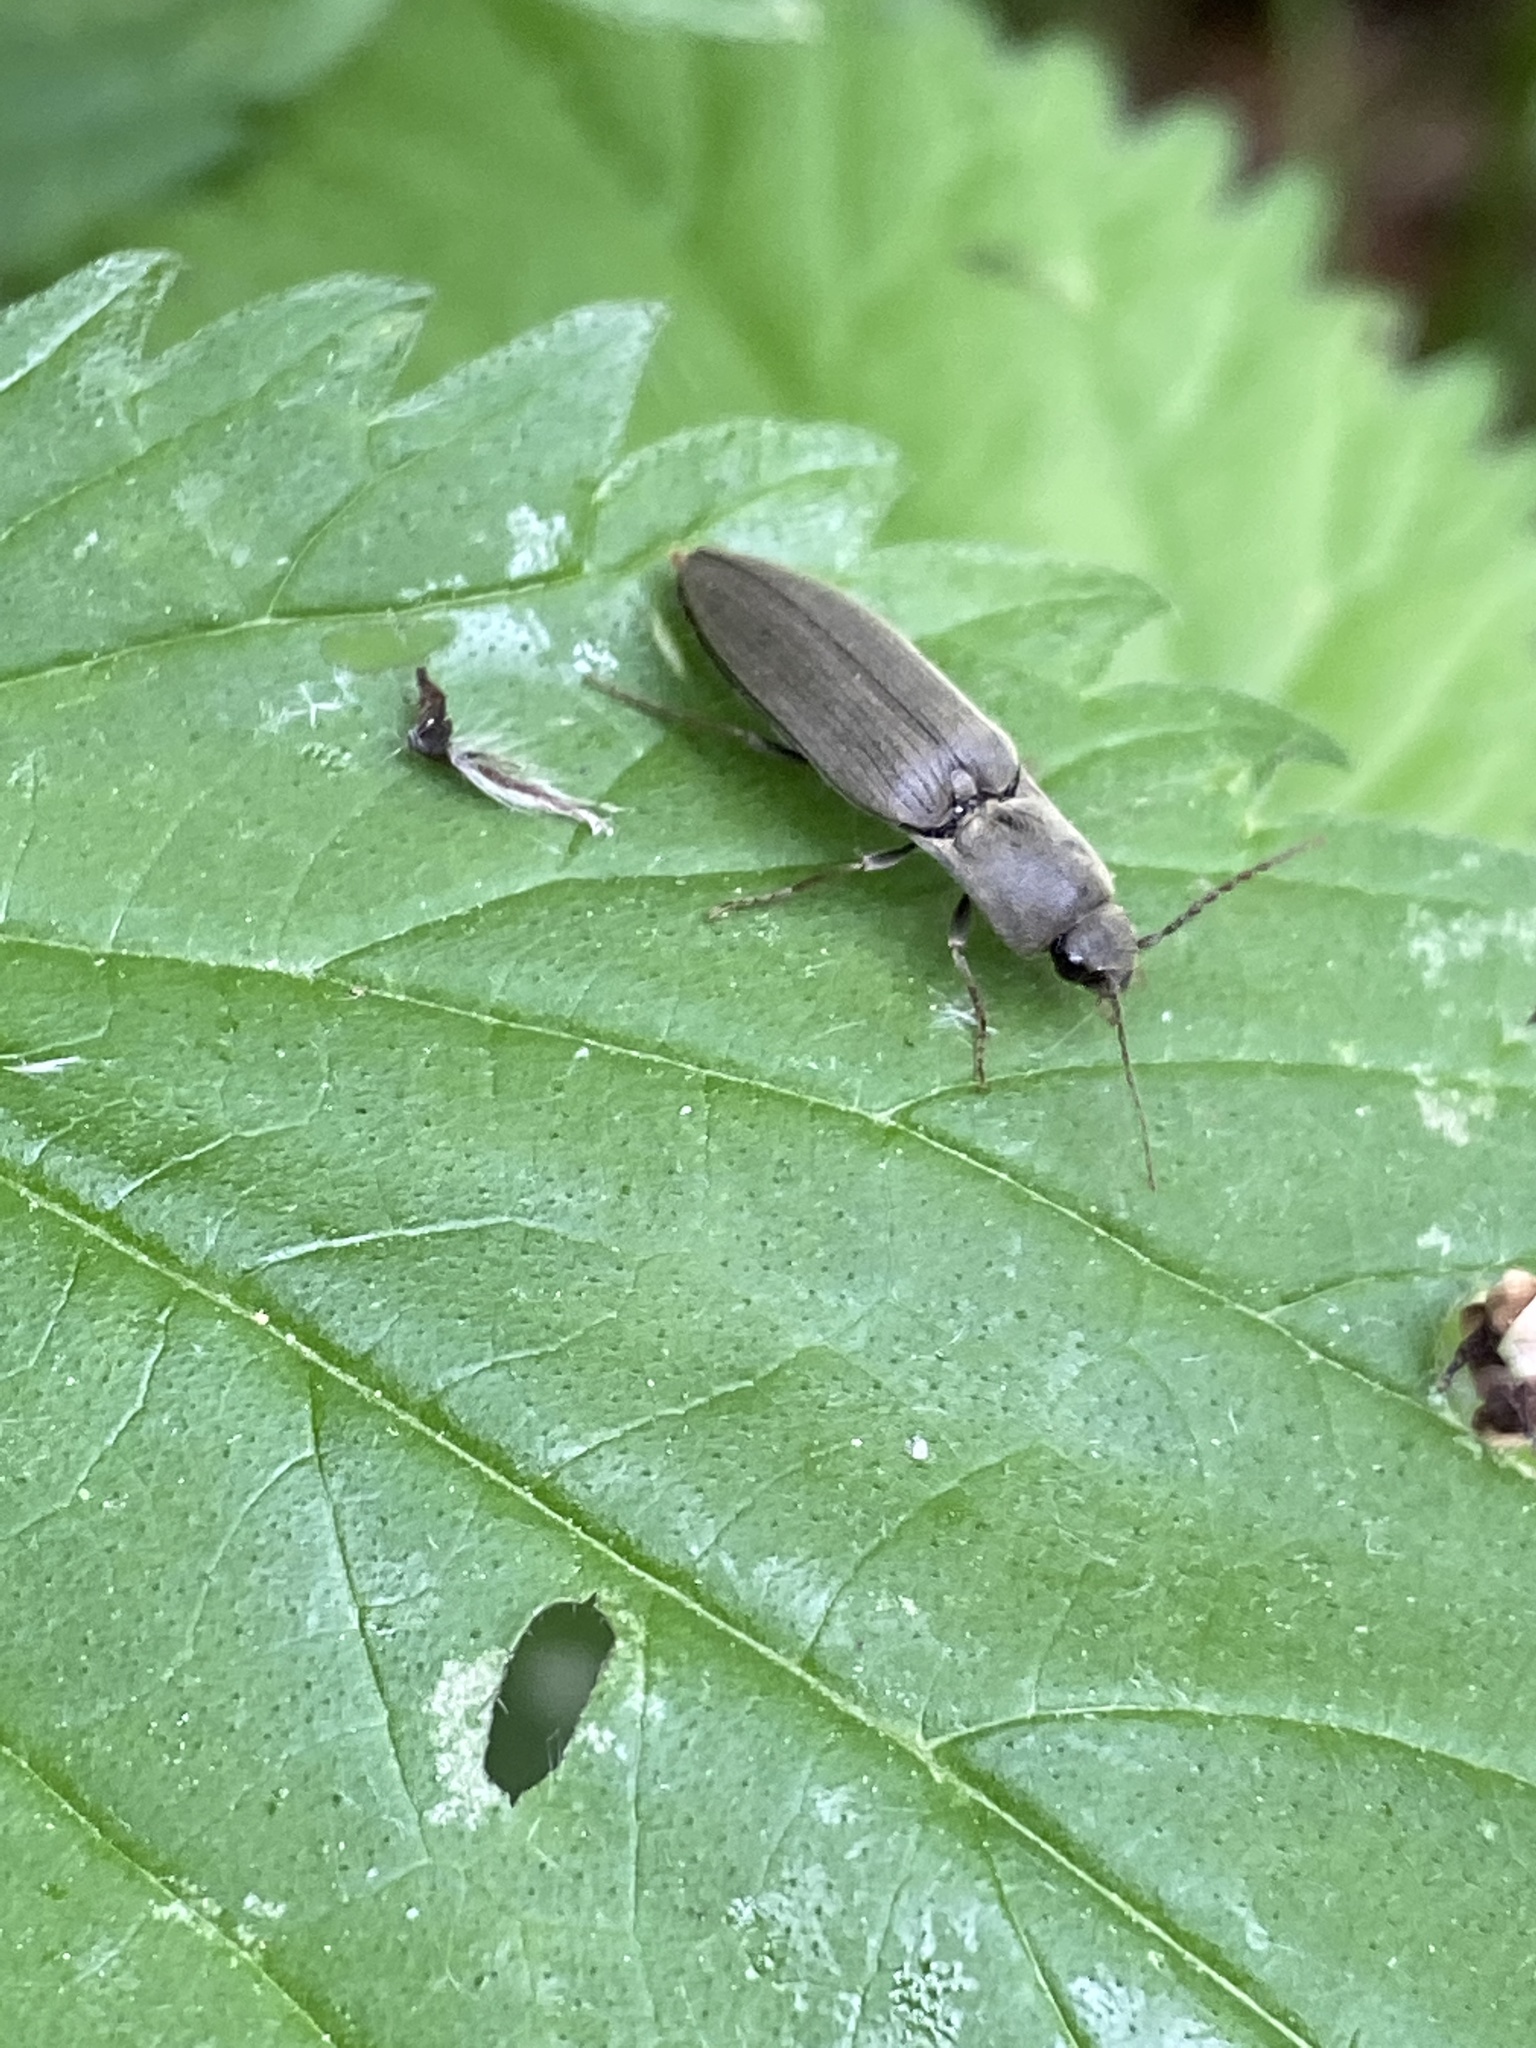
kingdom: Animalia
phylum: Arthropoda
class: Insecta
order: Coleoptera
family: Elateridae
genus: Agriotes
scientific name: Agriotes pilosellus
